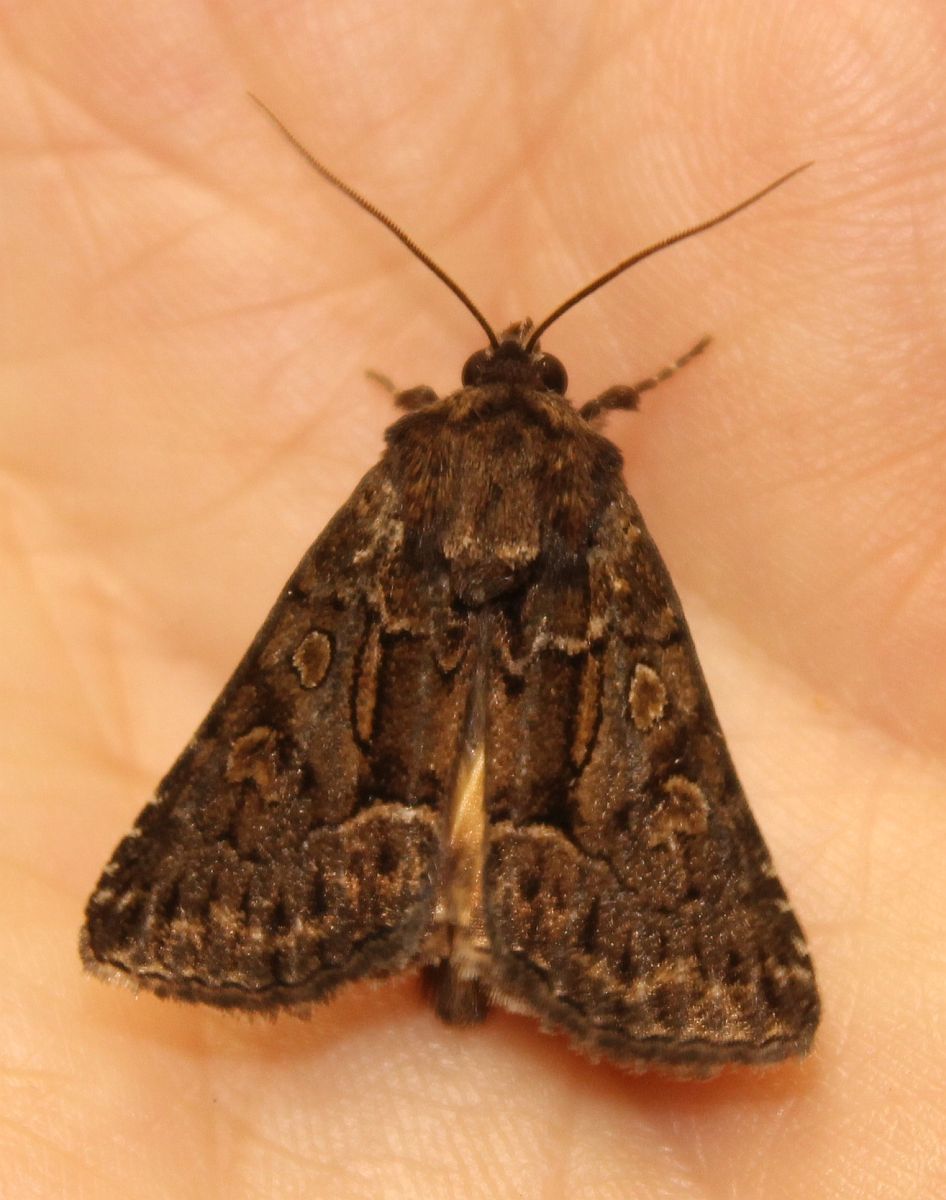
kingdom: Animalia
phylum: Arthropoda
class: Insecta
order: Lepidoptera
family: Noctuidae
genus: Thalpophila
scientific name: Thalpophila matura
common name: Straw underwing
